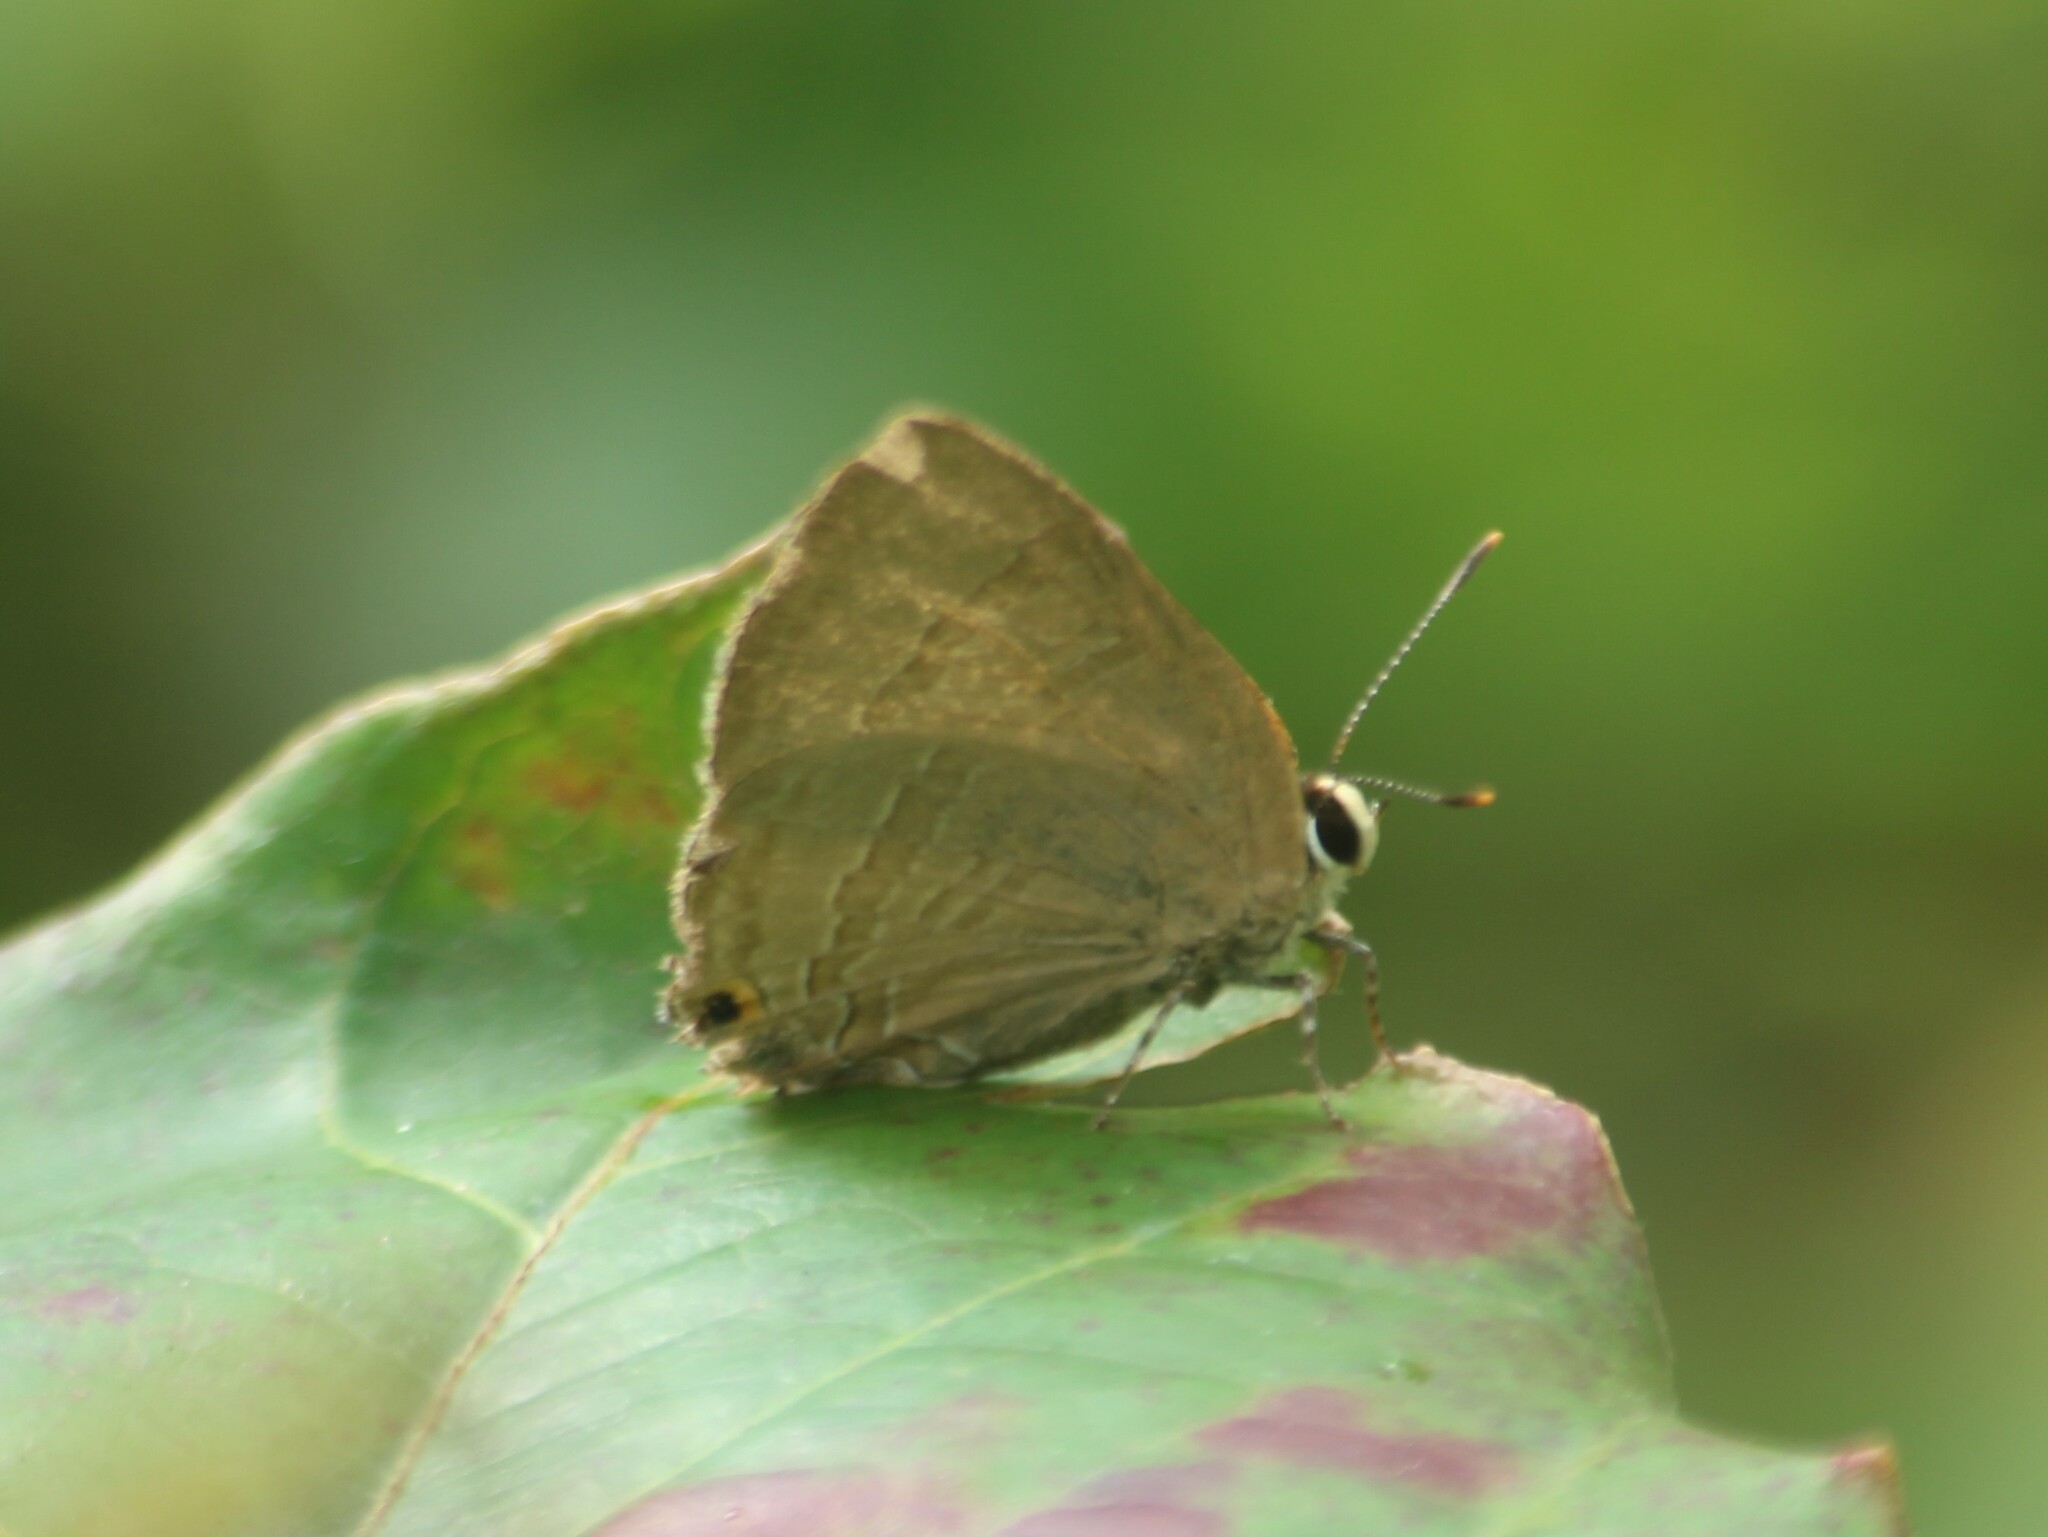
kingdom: Animalia
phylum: Arthropoda
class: Insecta
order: Lepidoptera
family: Lycaenidae
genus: Rapala
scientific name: Rapala manea
